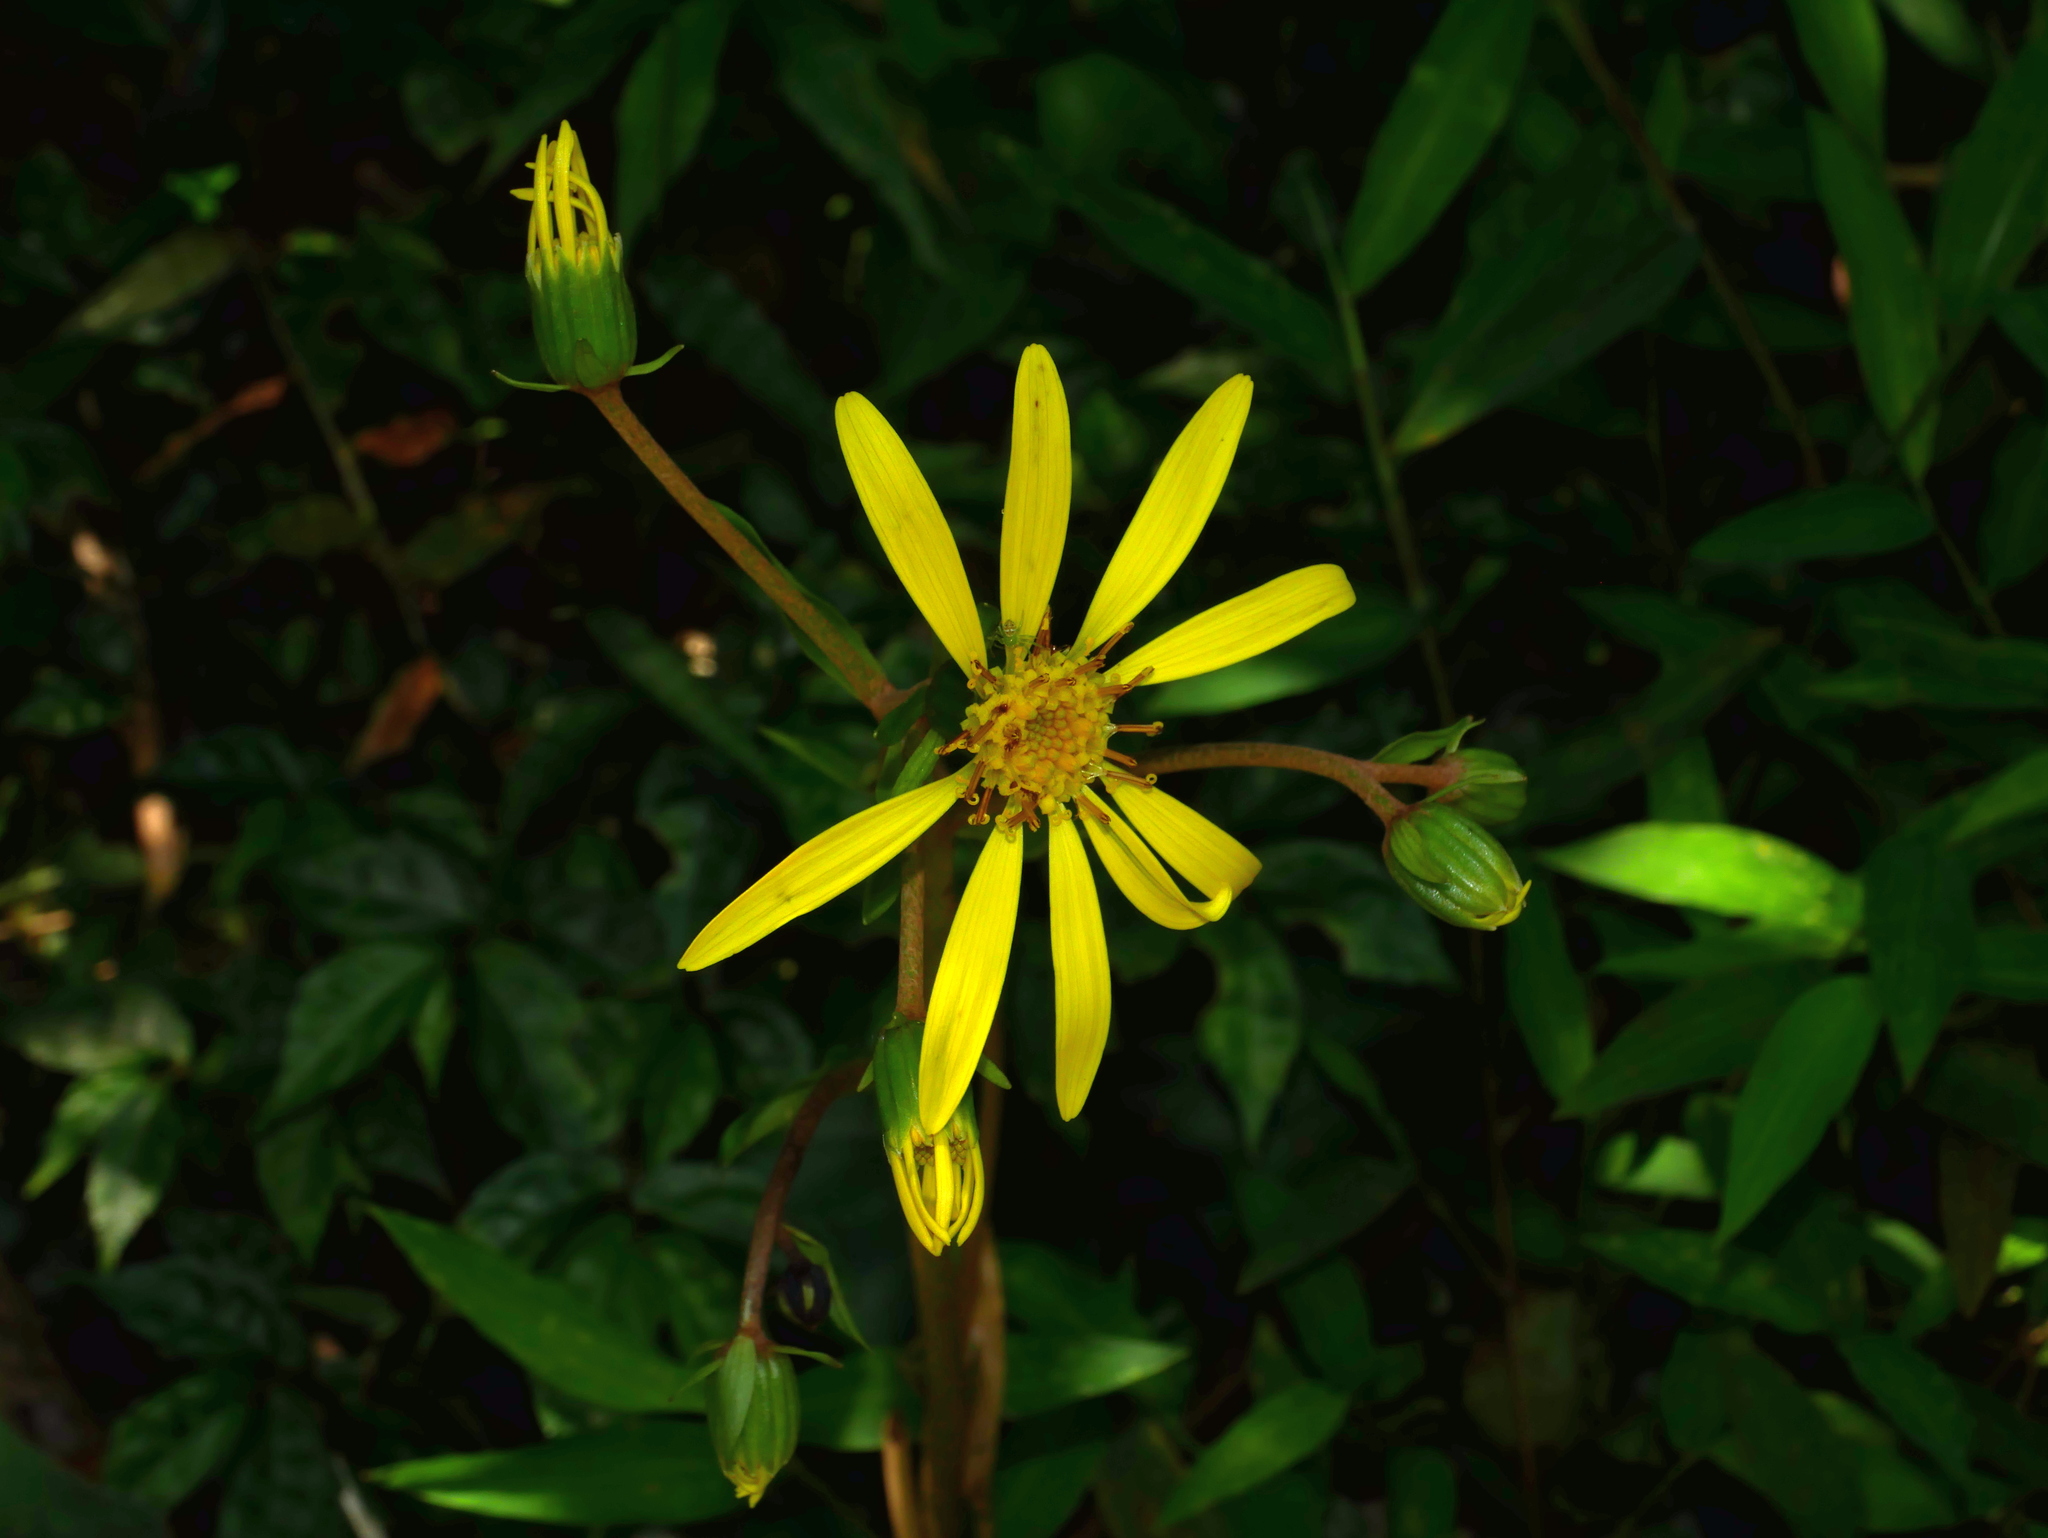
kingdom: Plantae
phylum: Tracheophyta
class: Magnoliopsida
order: Asterales
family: Asteraceae
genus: Farfugium
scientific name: Farfugium japonicum
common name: Leopardplant
